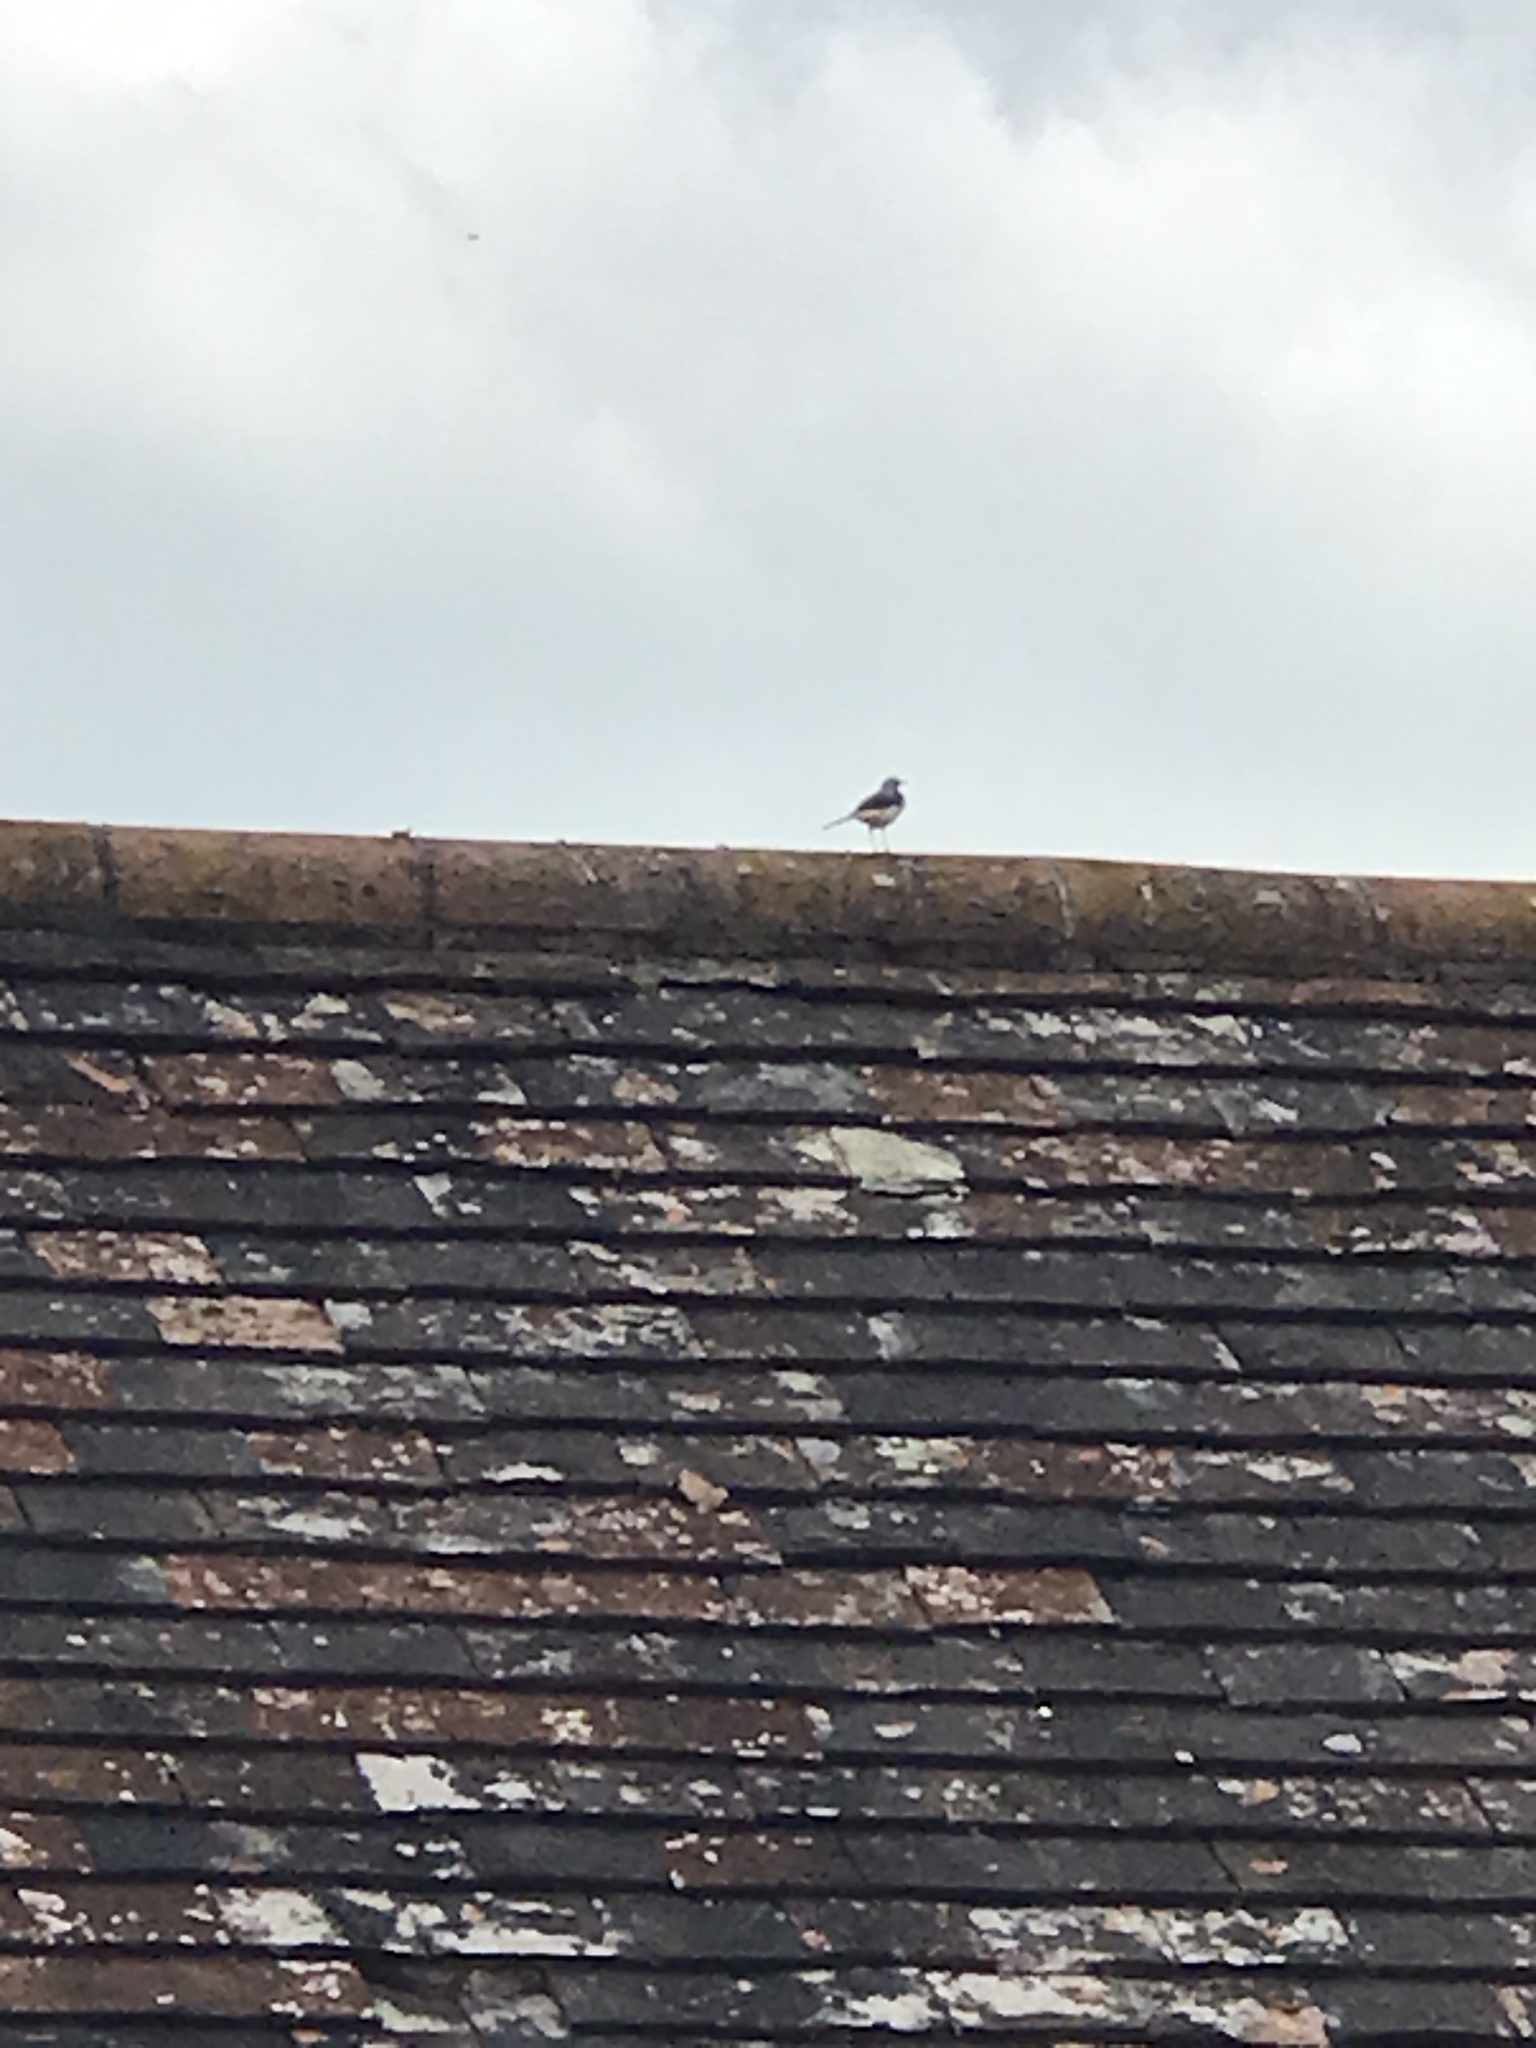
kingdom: Animalia
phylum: Chordata
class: Aves
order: Passeriformes
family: Motacillidae
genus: Motacilla
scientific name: Motacilla cinerea
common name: Grey wagtail
